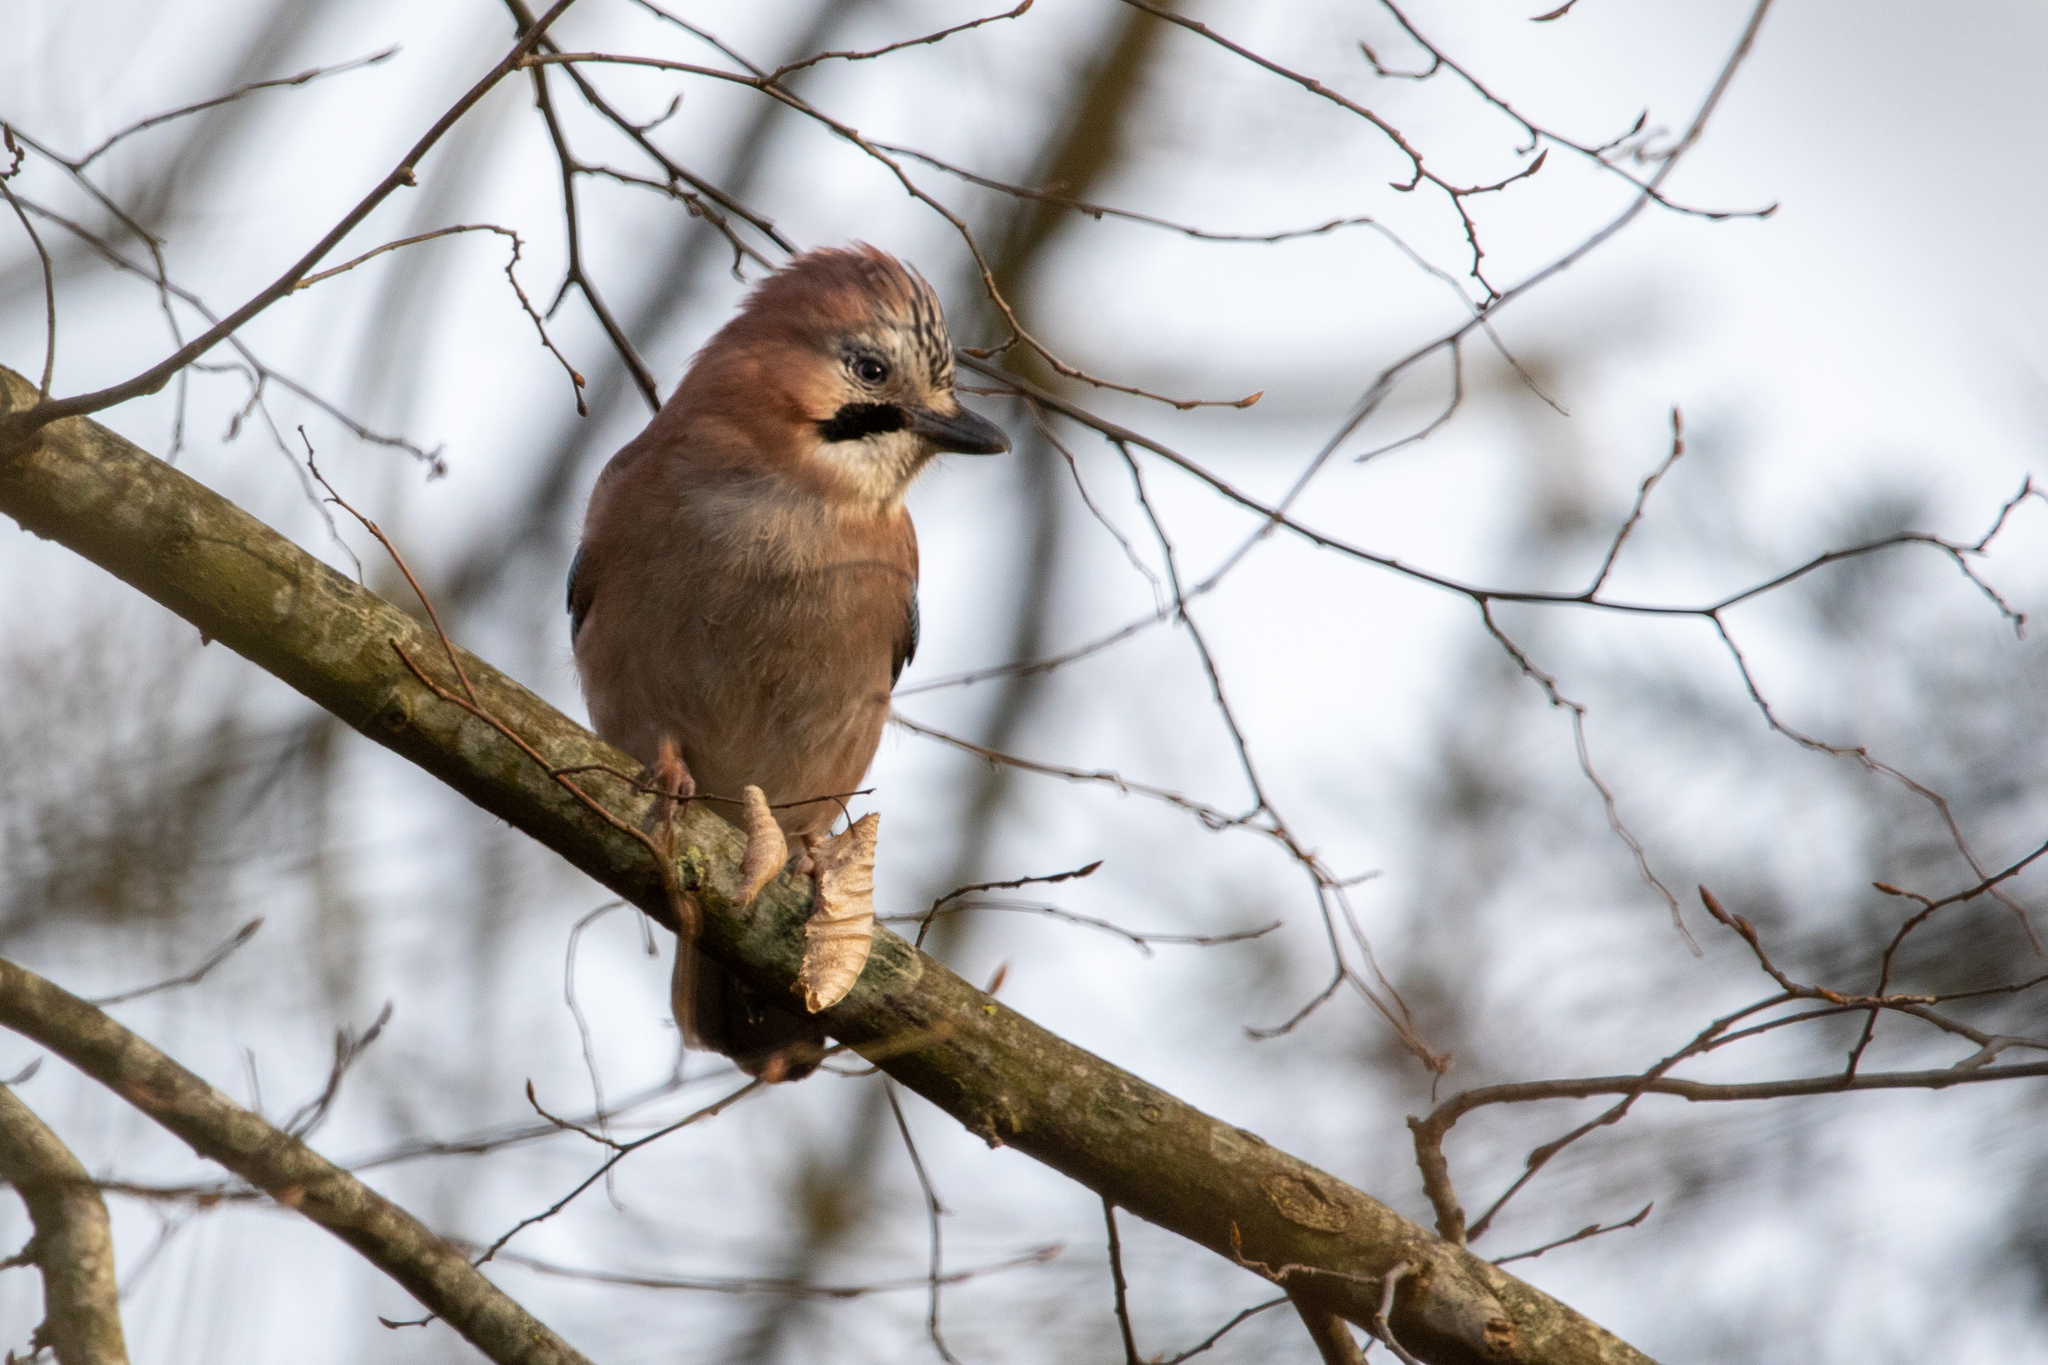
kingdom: Animalia
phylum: Chordata
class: Aves
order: Passeriformes
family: Corvidae
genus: Garrulus
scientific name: Garrulus glandarius
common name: Eurasian jay
